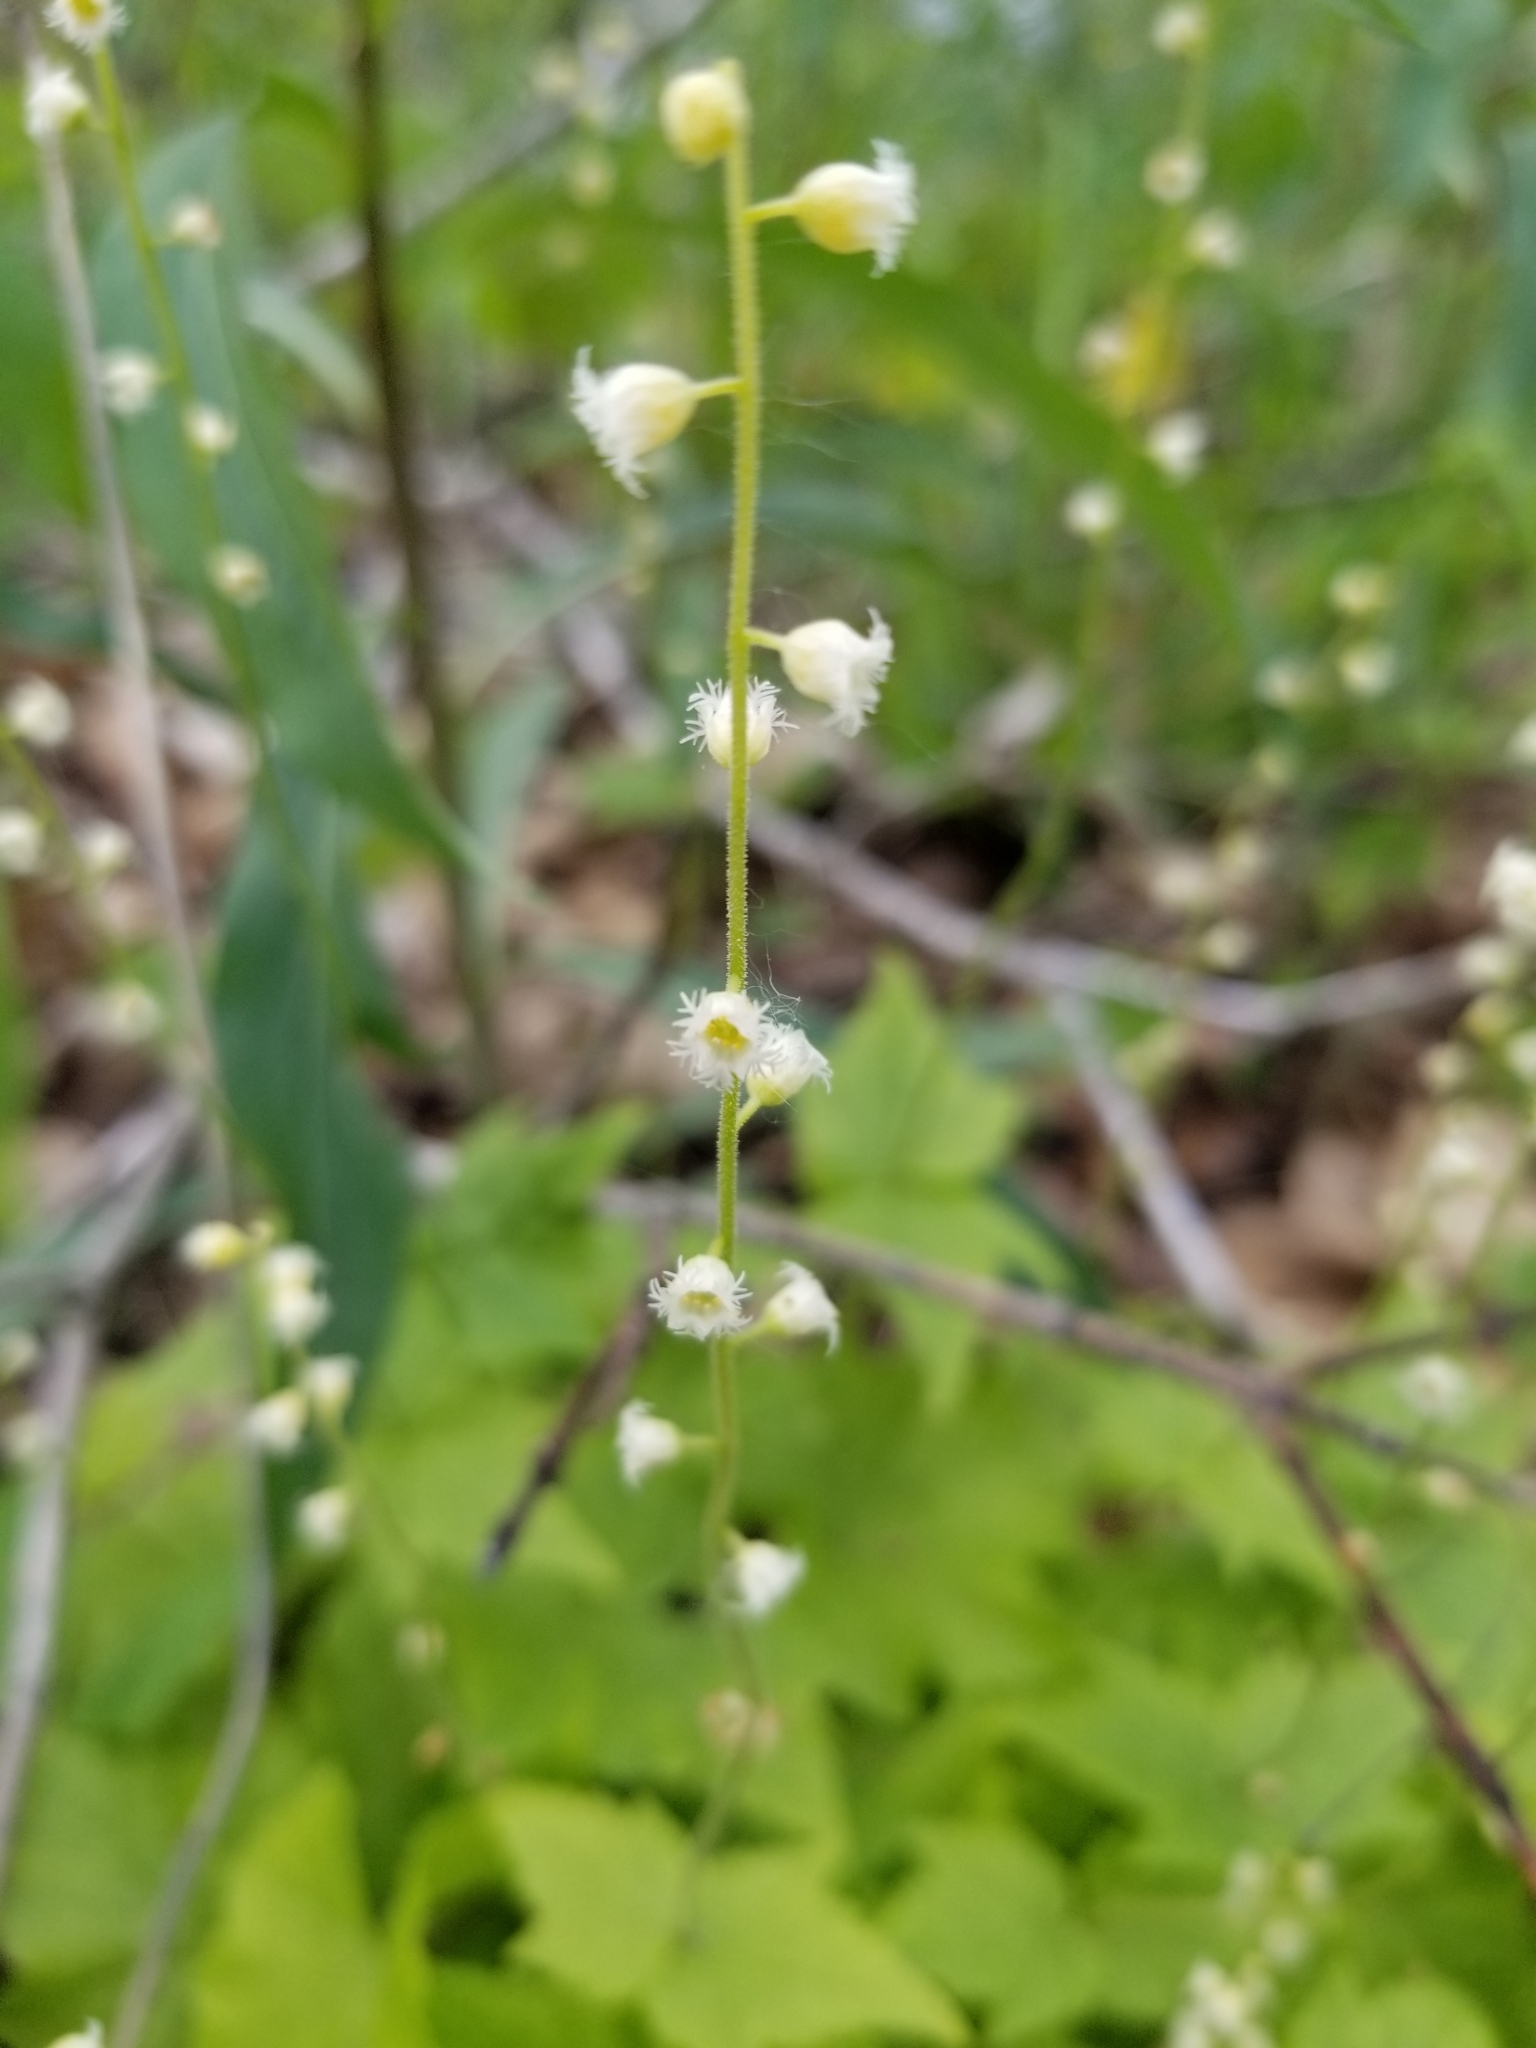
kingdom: Plantae
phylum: Tracheophyta
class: Magnoliopsida
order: Saxifragales
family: Saxifragaceae
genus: Mitella
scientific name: Mitella diphylla
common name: Coolwort
